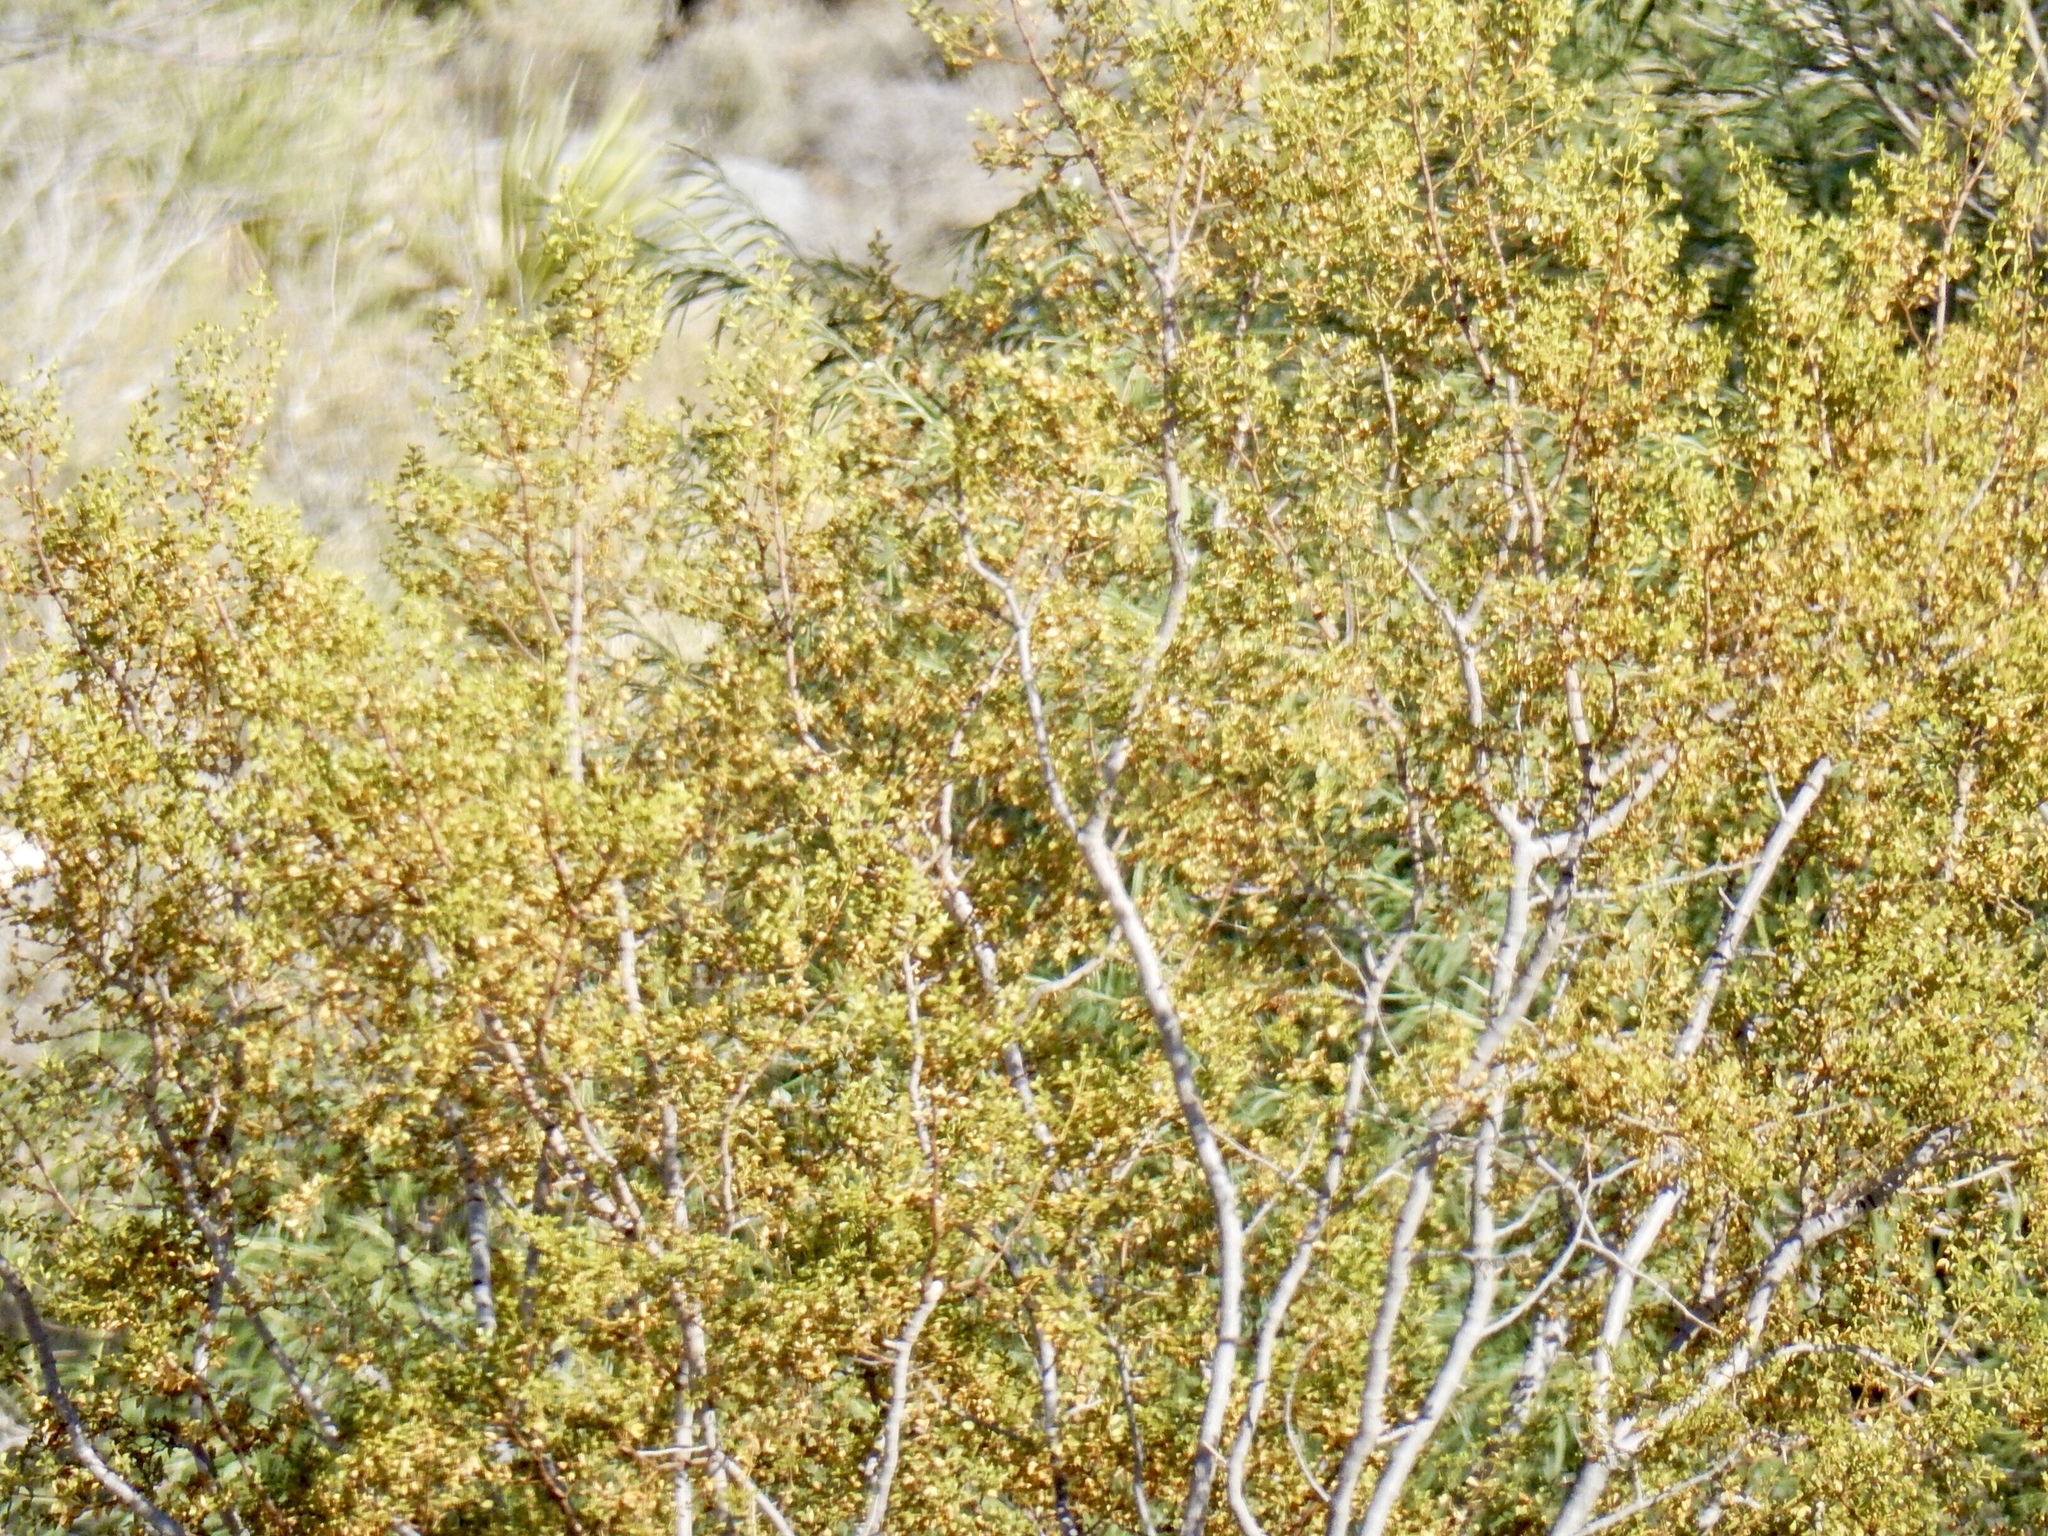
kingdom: Plantae
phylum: Tracheophyta
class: Magnoliopsida
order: Zygophyllales
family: Zygophyllaceae
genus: Larrea
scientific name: Larrea tridentata
